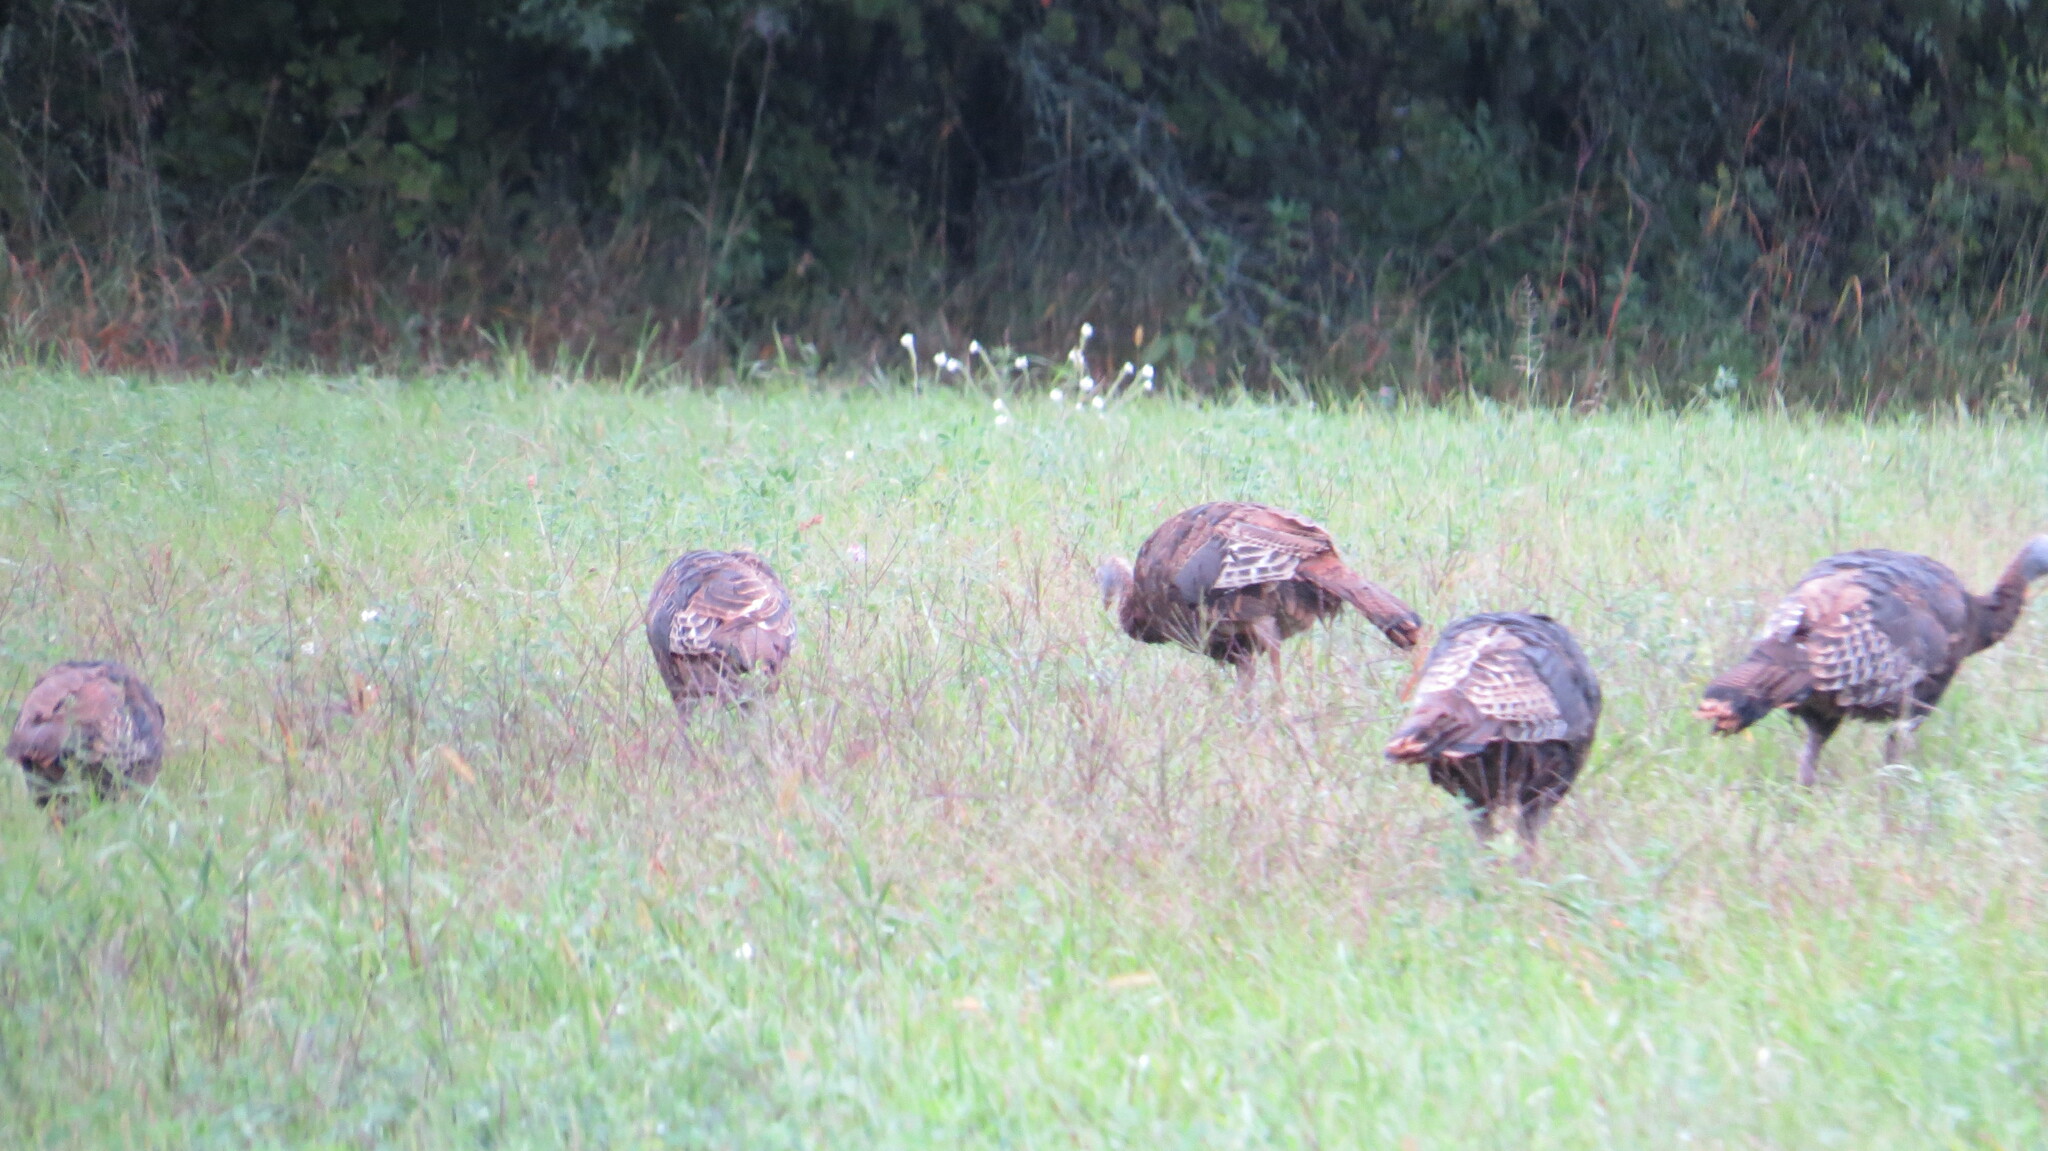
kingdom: Animalia
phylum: Chordata
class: Aves
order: Galliformes
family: Phasianidae
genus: Meleagris
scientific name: Meleagris gallopavo
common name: Wild turkey
